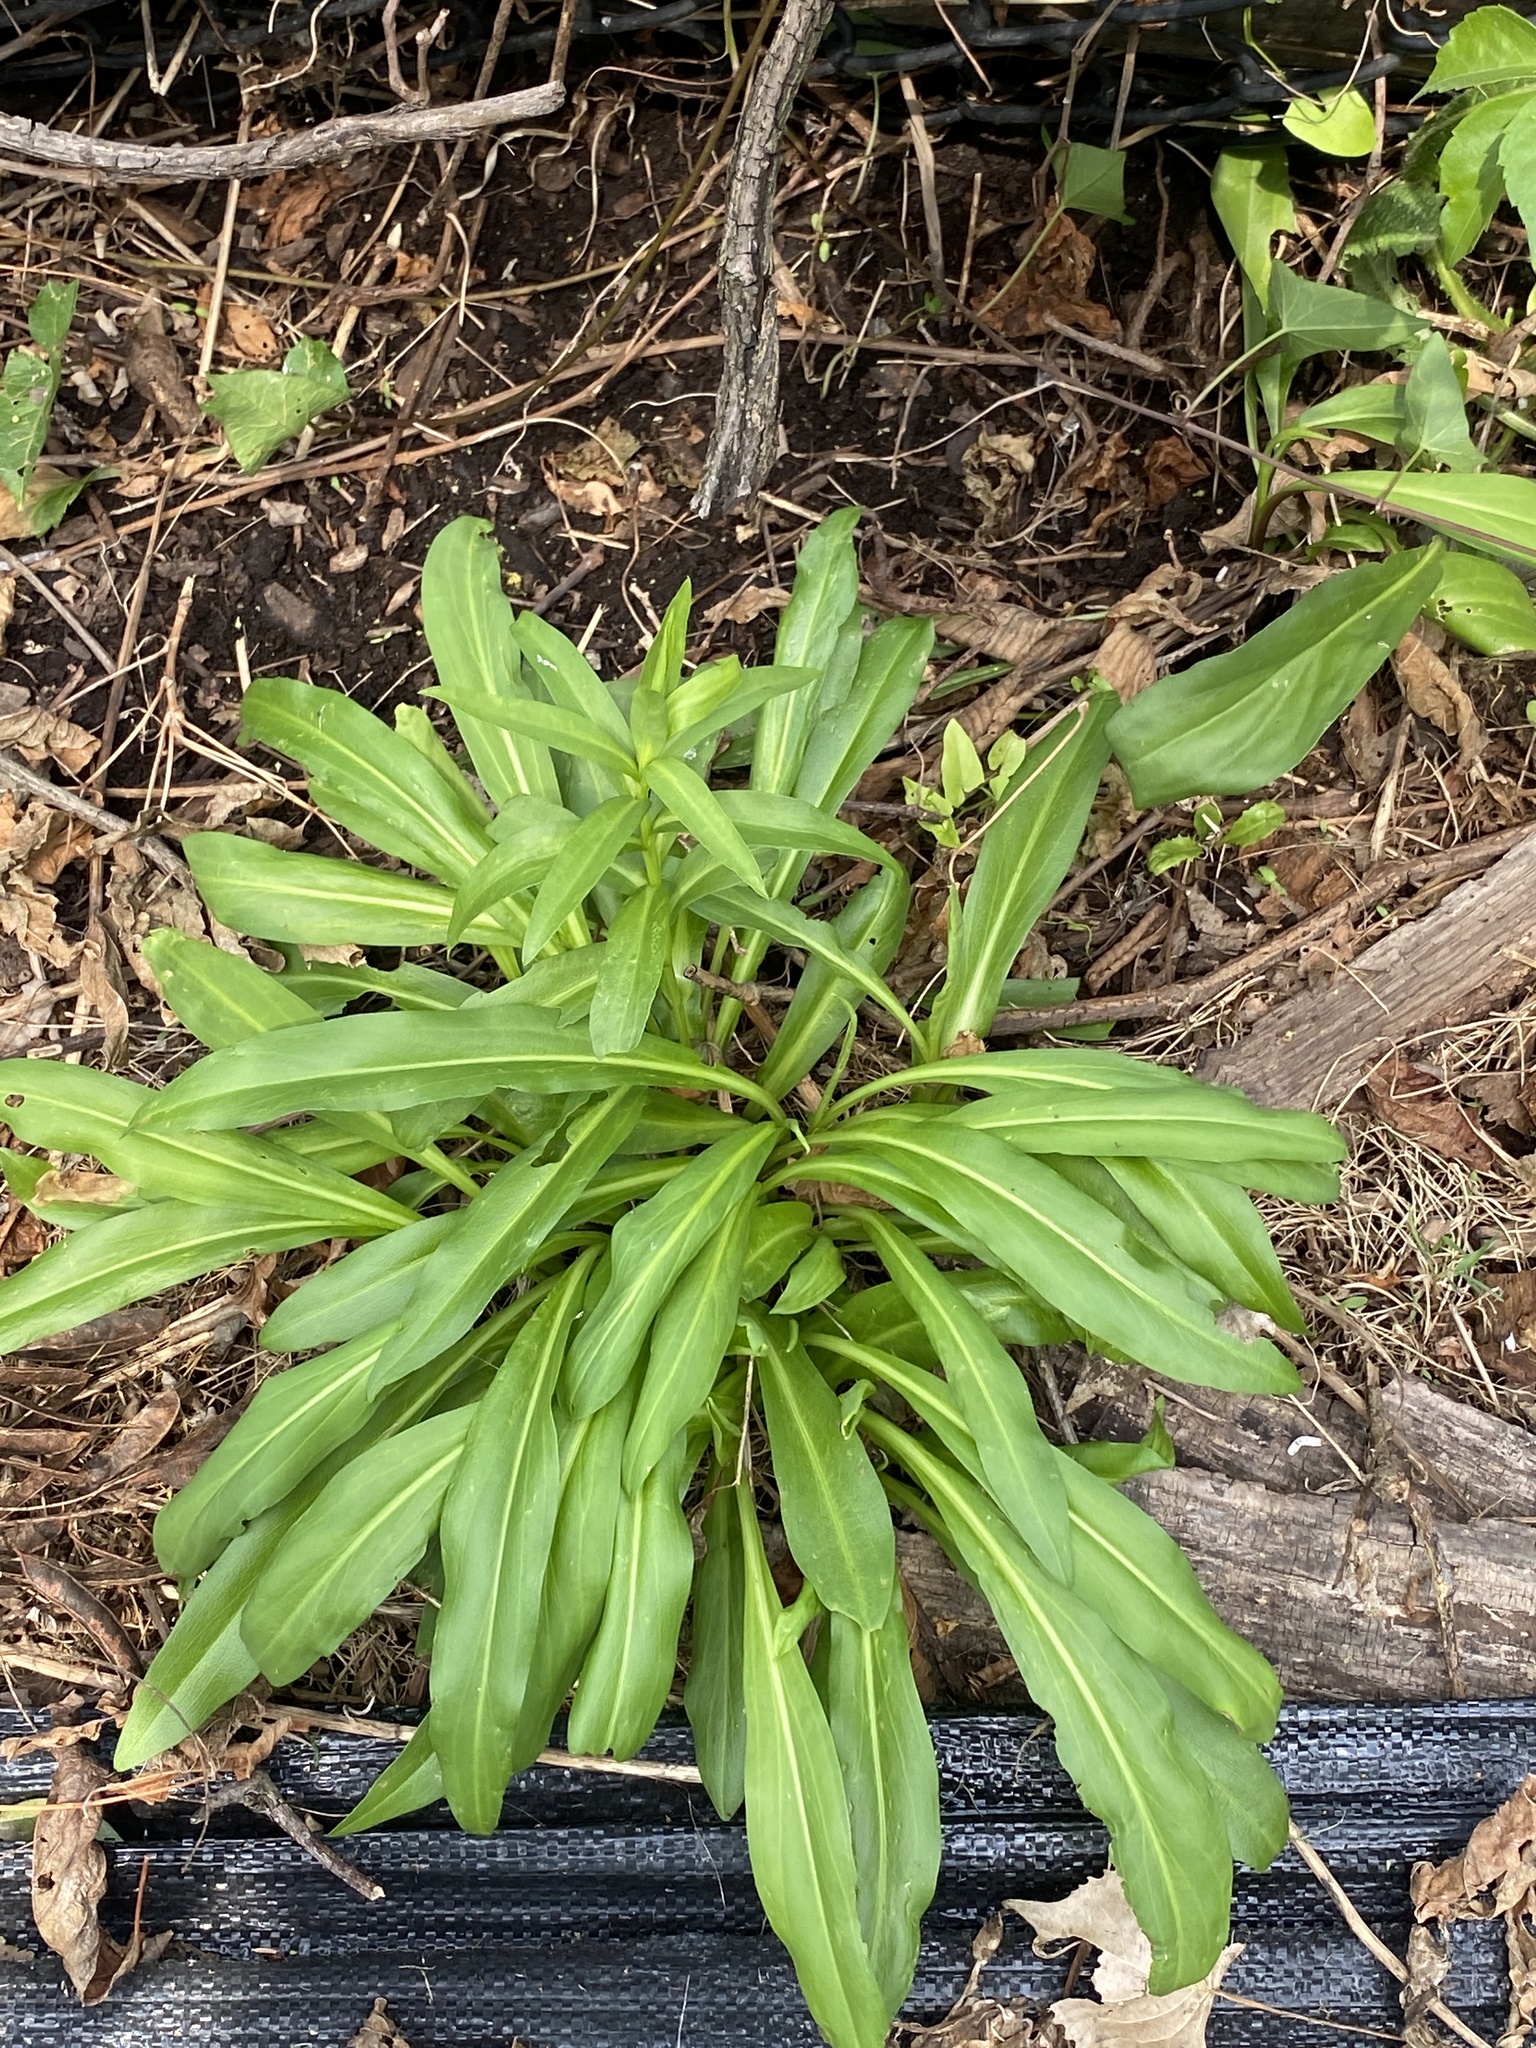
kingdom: Plantae
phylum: Tracheophyta
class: Magnoliopsida
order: Asterales
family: Asteraceae
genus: Solidago
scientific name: Solidago sempervirens
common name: Salt-marsh goldenrod
